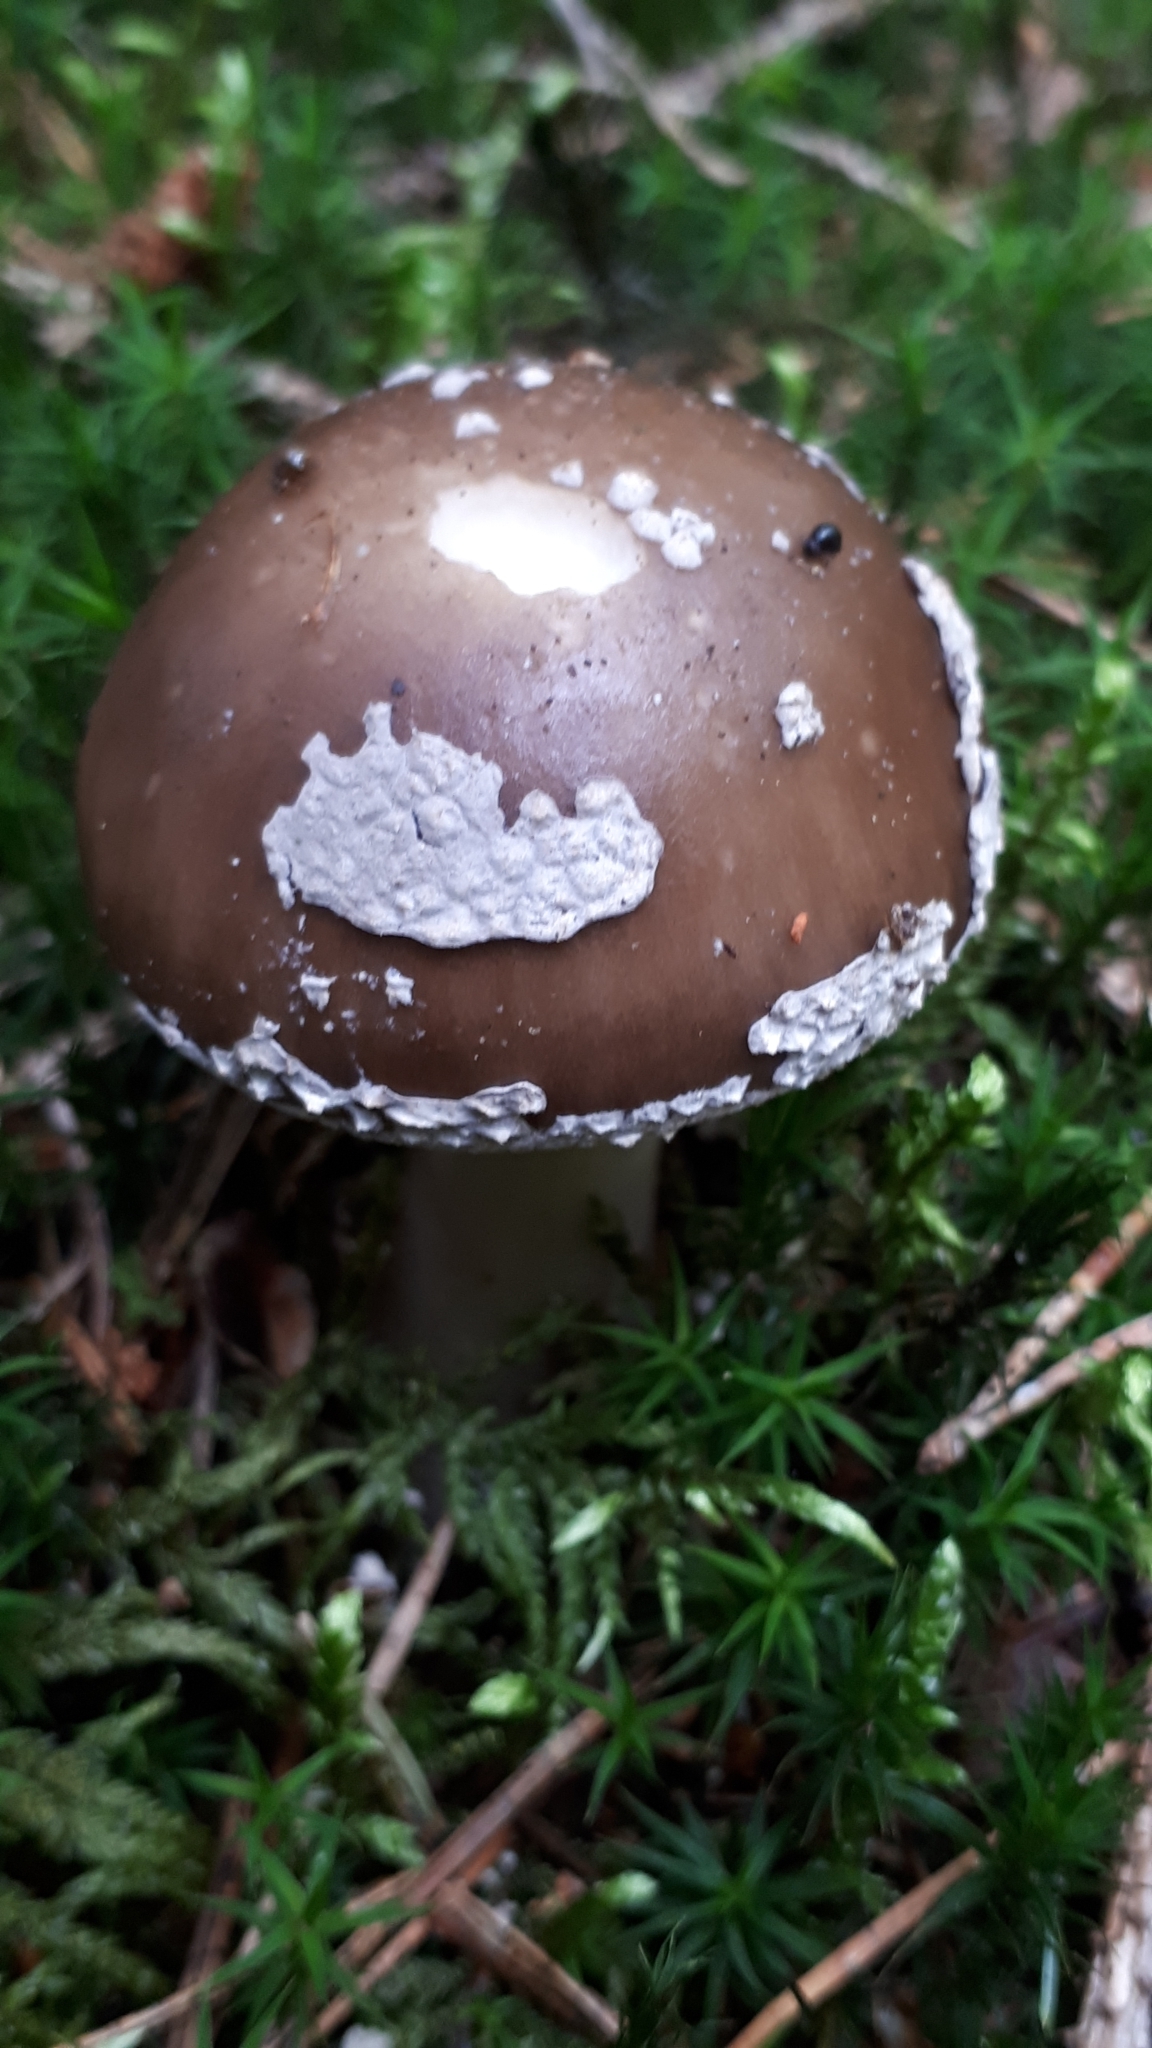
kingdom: Fungi
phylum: Basidiomycota
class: Agaricomycetes
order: Agaricales
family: Amanitaceae
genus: Amanita
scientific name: Amanita excelsa
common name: European false blusher
